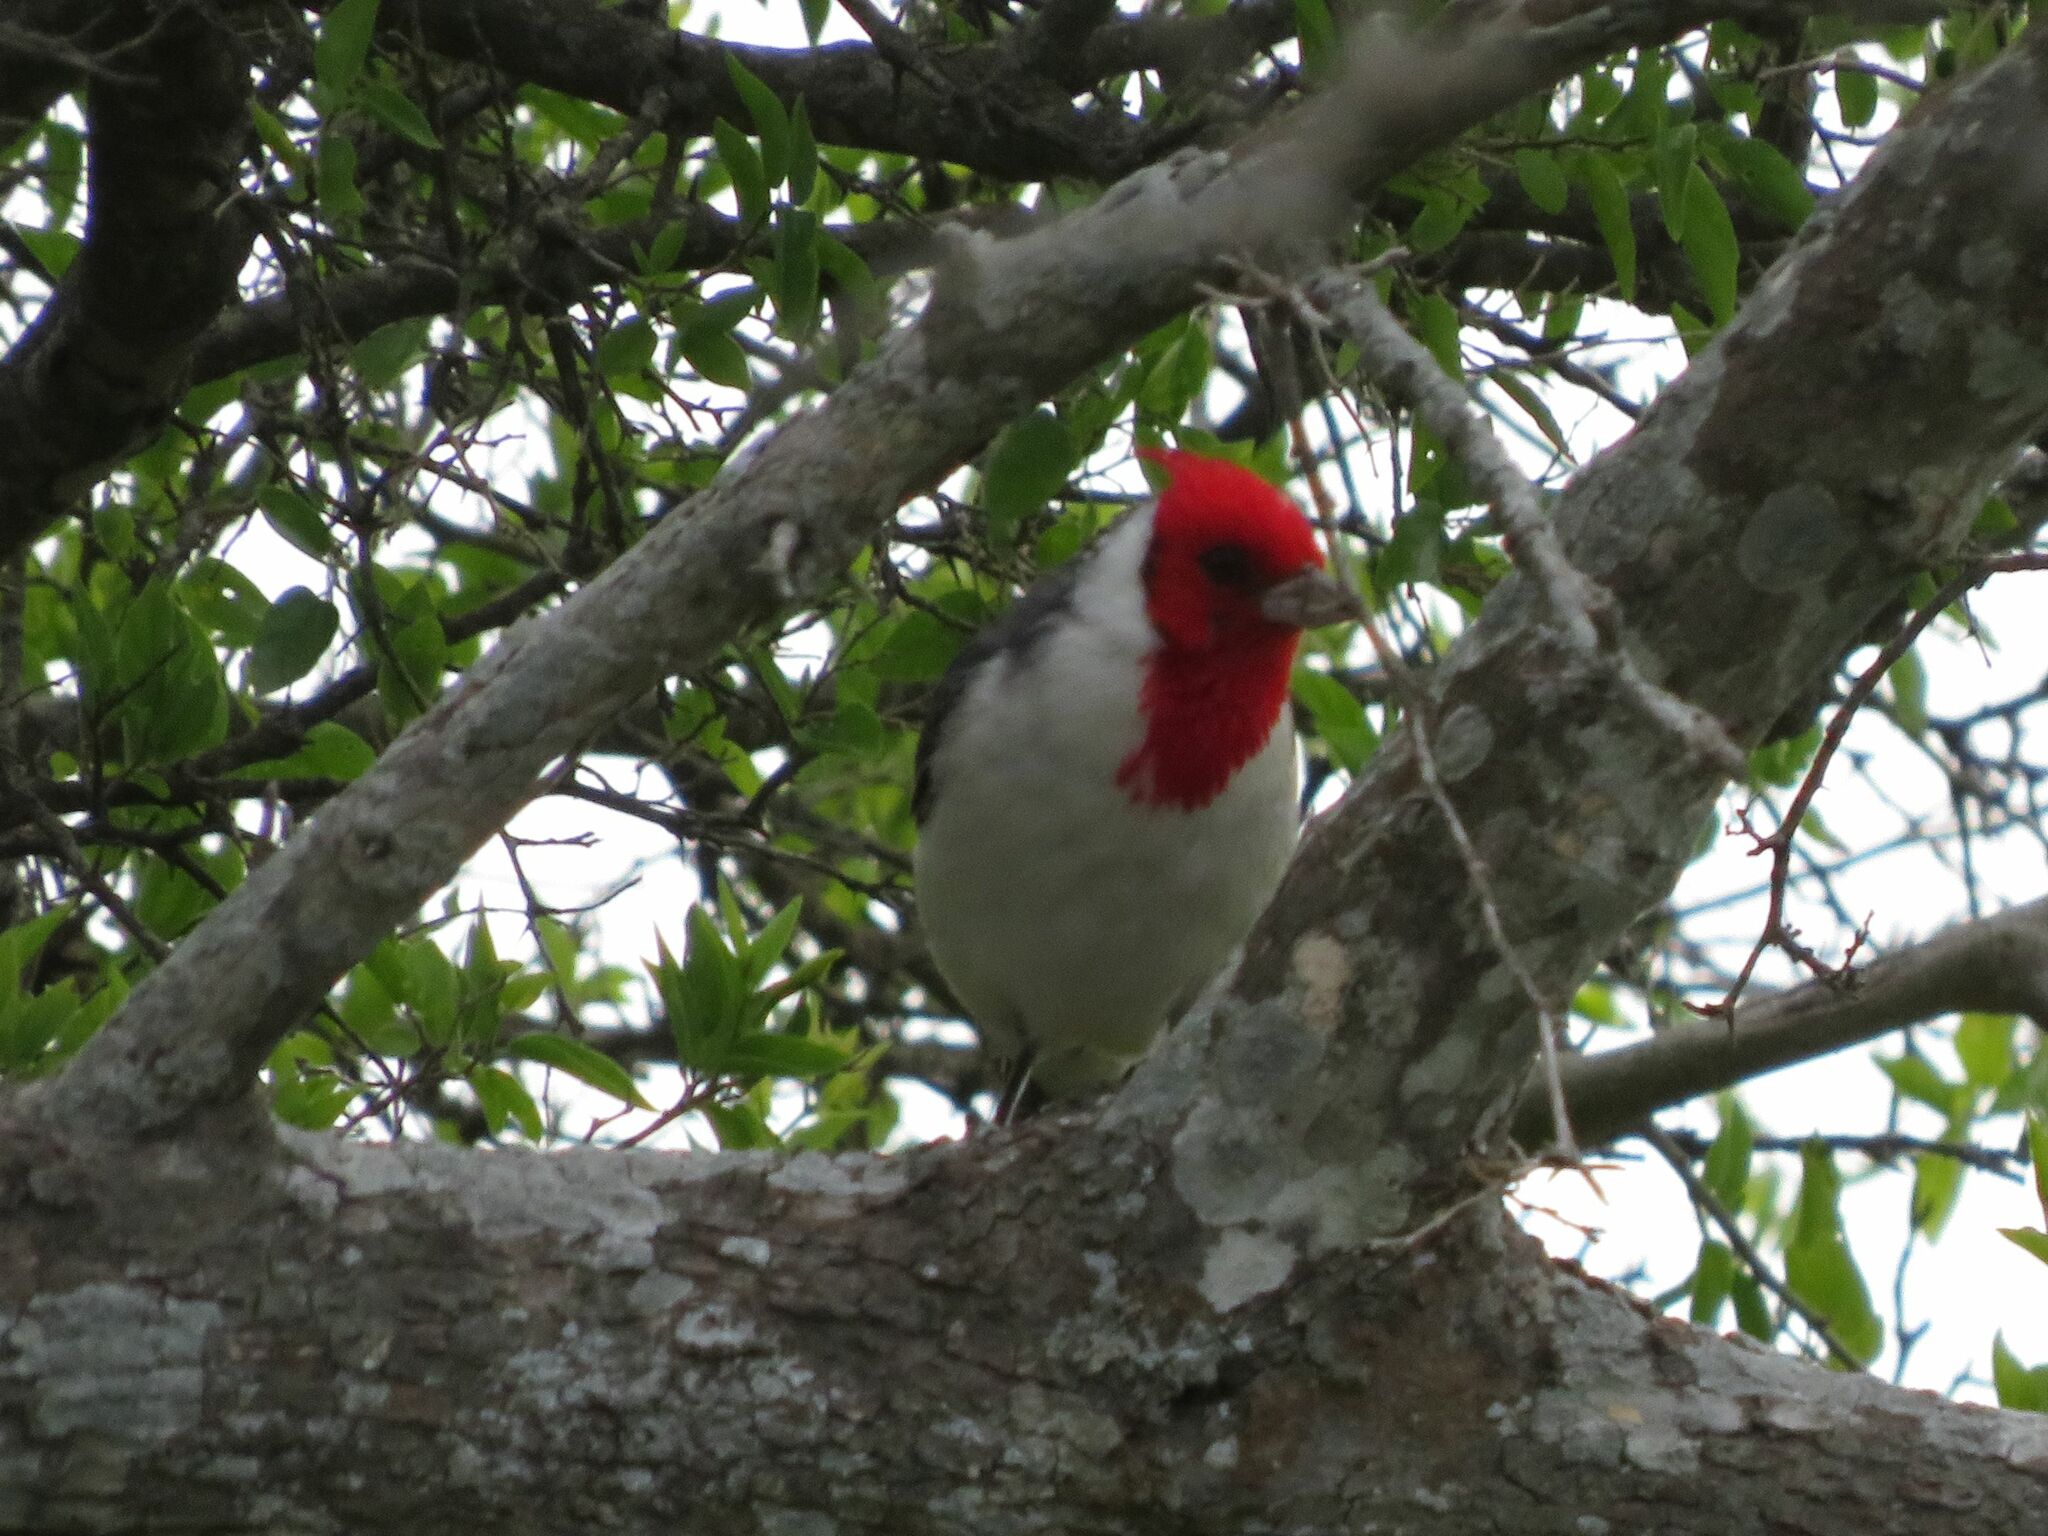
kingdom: Animalia
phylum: Chordata
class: Aves
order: Passeriformes
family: Thraupidae
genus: Paroaria
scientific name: Paroaria coronata
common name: Red-crested cardinal
